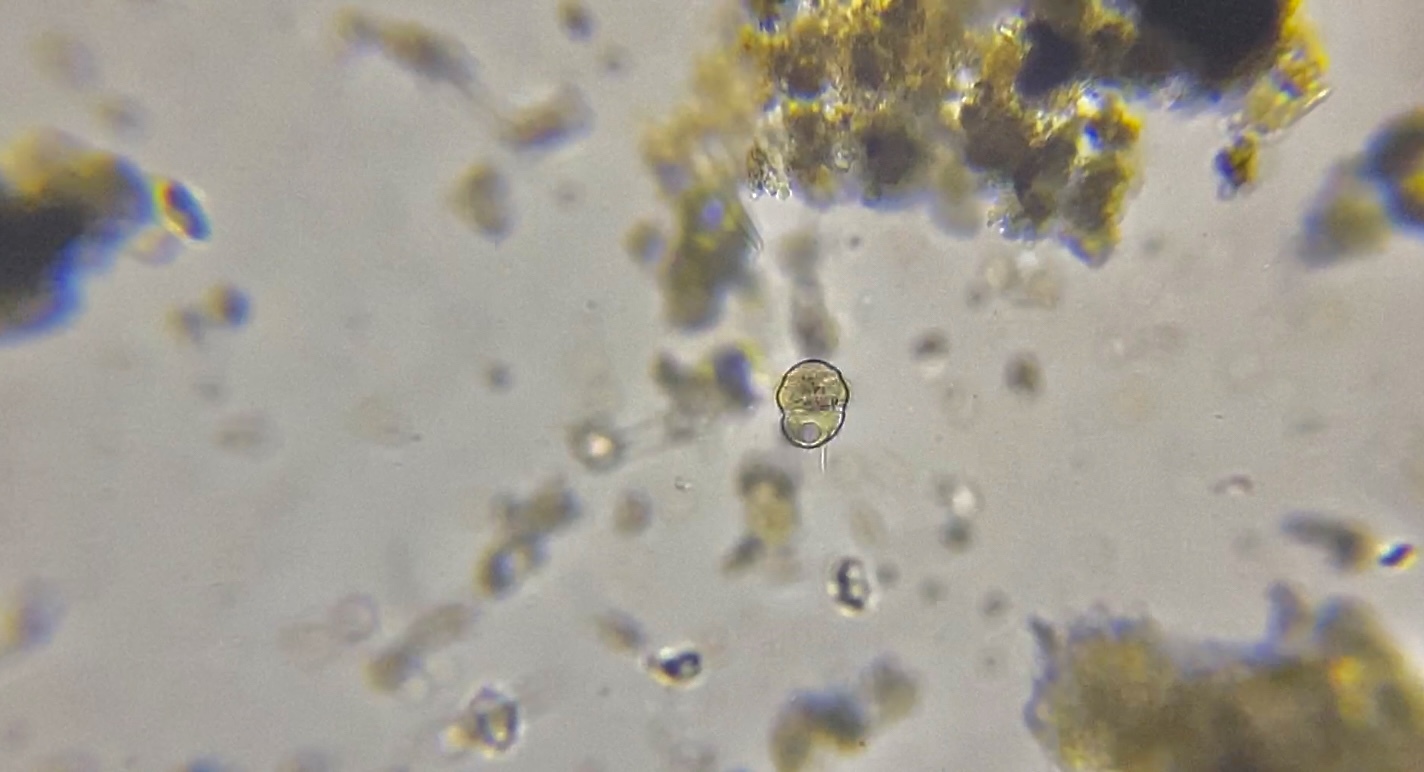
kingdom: Chromista
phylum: Ciliophora
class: Oligohymenophorea
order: Hymenostomatida
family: Urocentridae
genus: Urocentrum
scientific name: Urocentrum turbo
